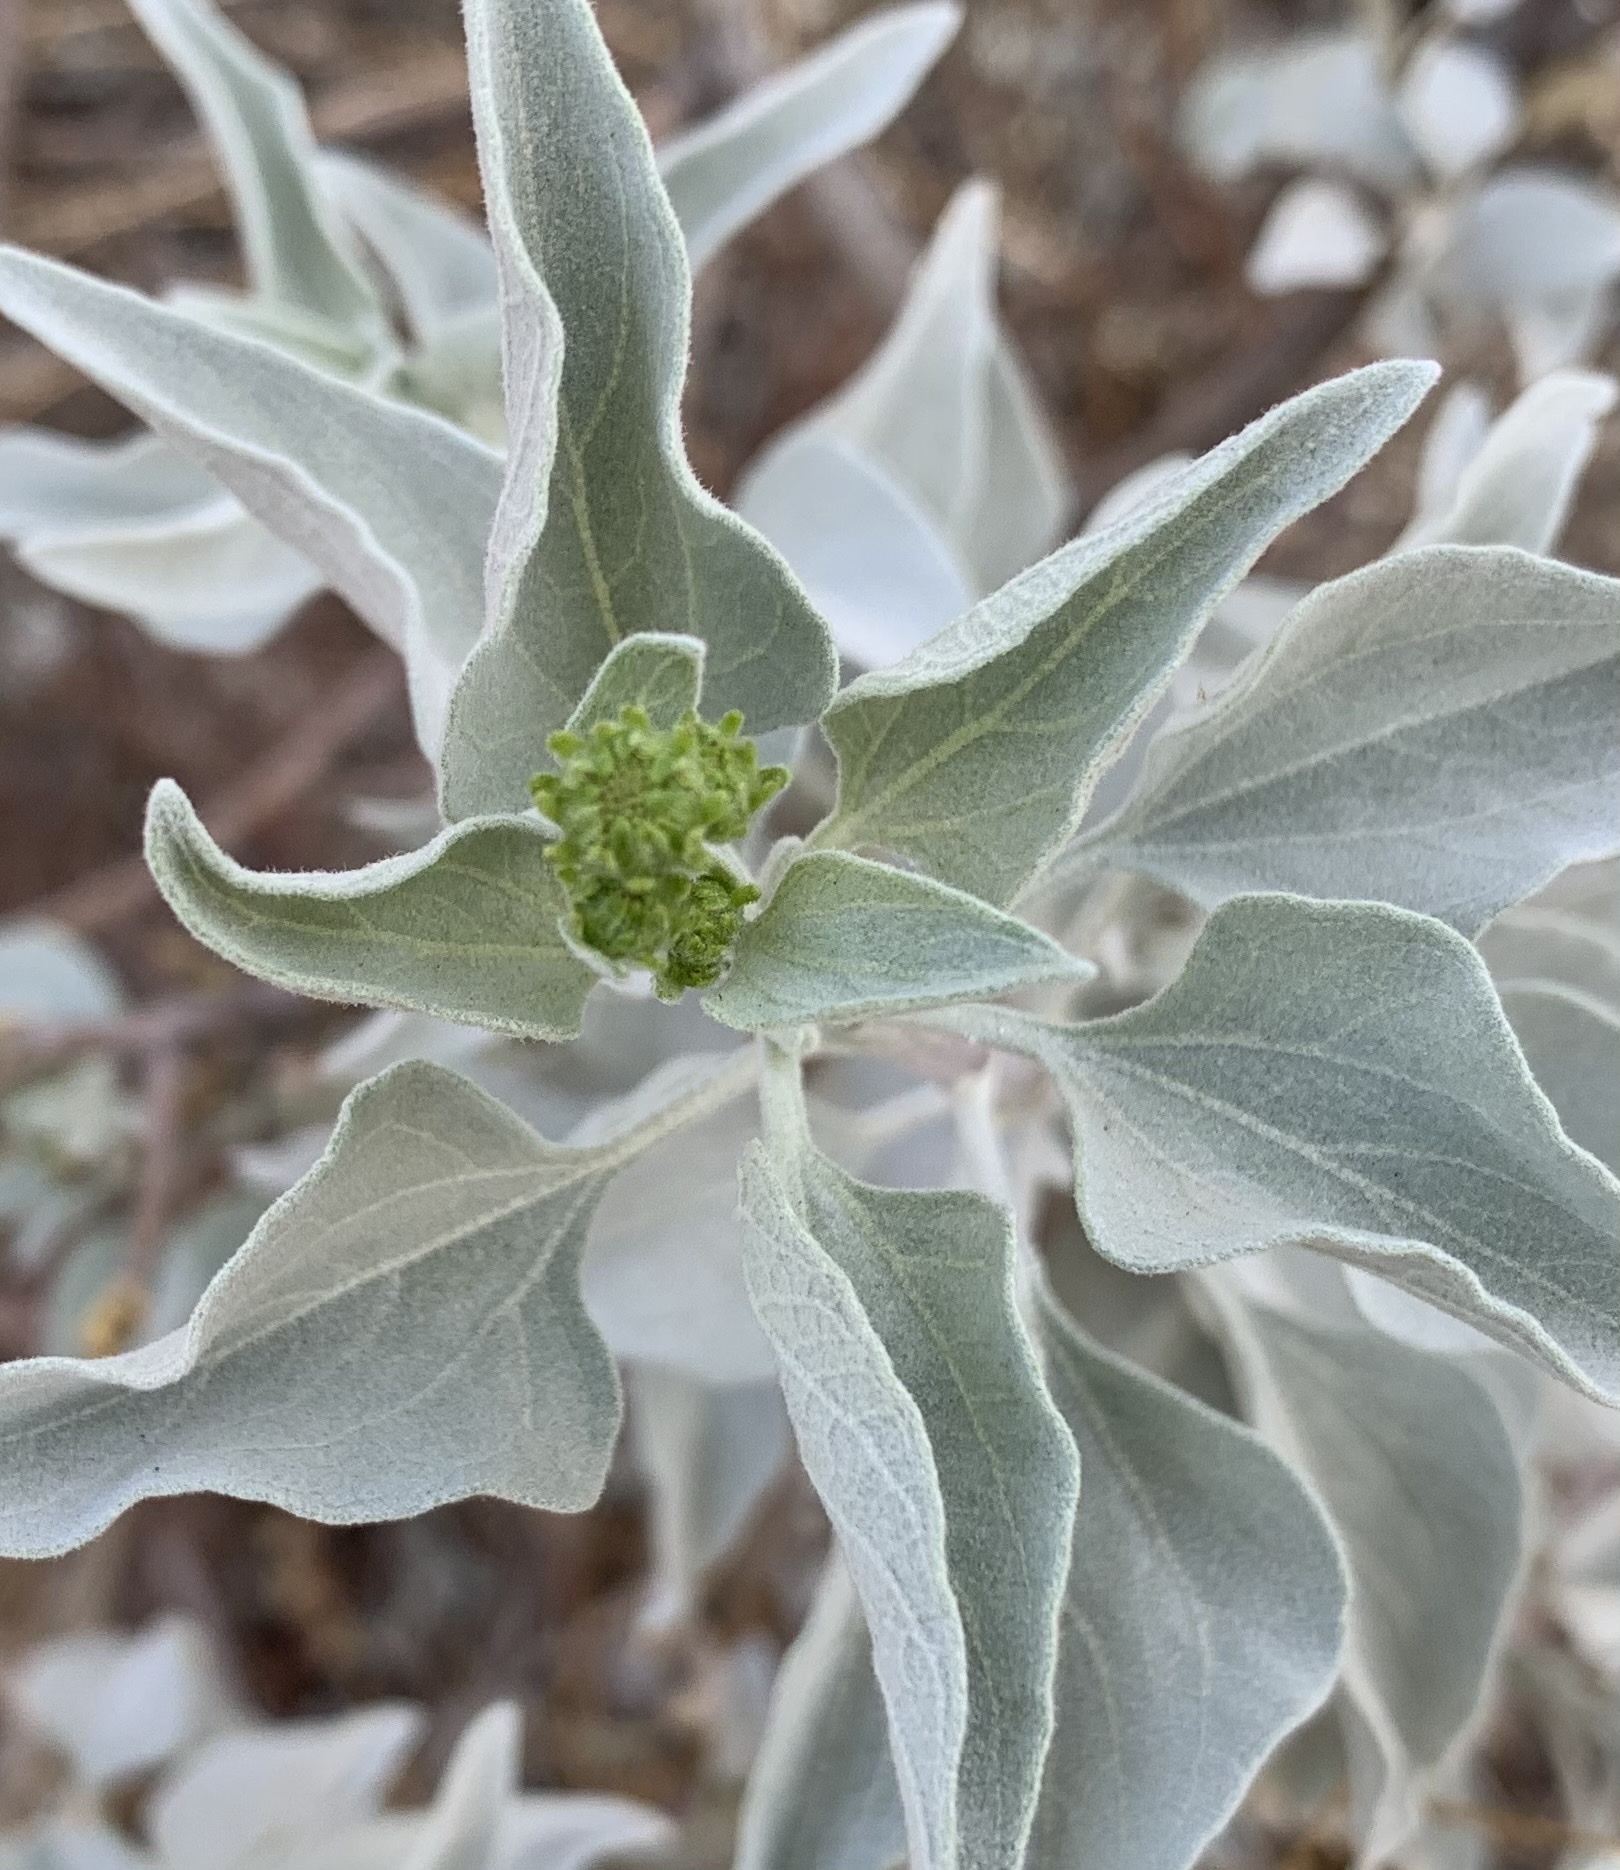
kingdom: Plantae
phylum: Tracheophyta
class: Magnoliopsida
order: Asterales
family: Asteraceae
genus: Encelia
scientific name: Encelia farinosa
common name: Brittlebush
